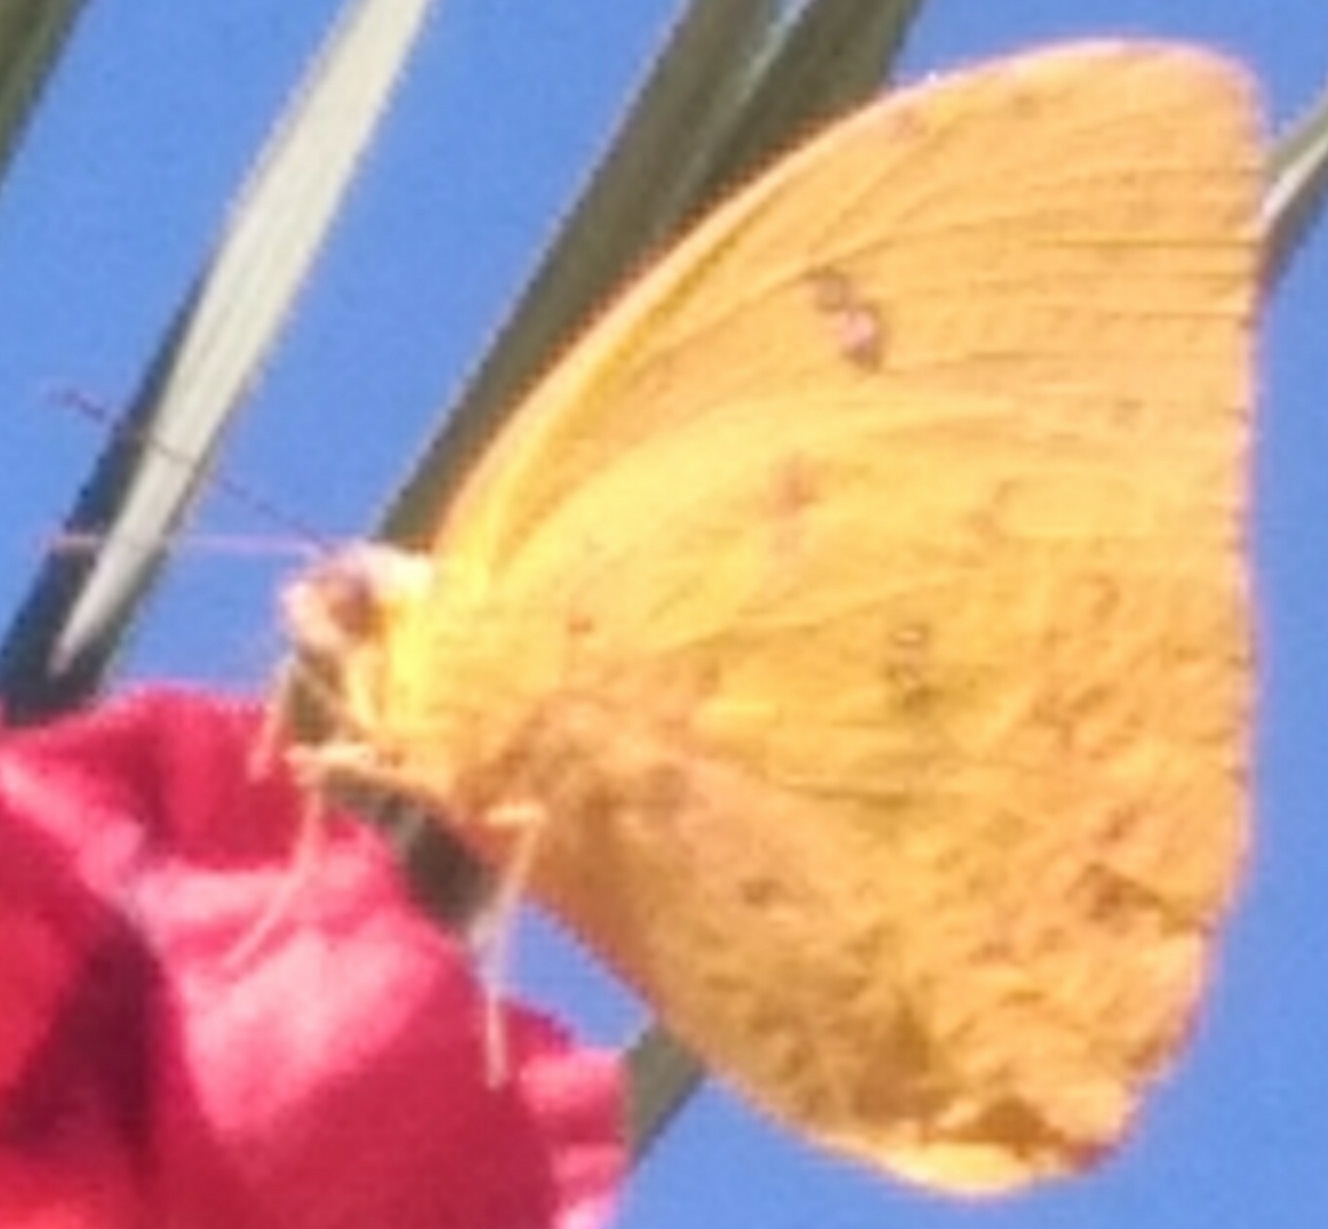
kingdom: Animalia
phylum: Arthropoda
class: Insecta
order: Lepidoptera
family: Pieridae
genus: Phoebis
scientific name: Phoebis sennae
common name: Cloudless sulphur
